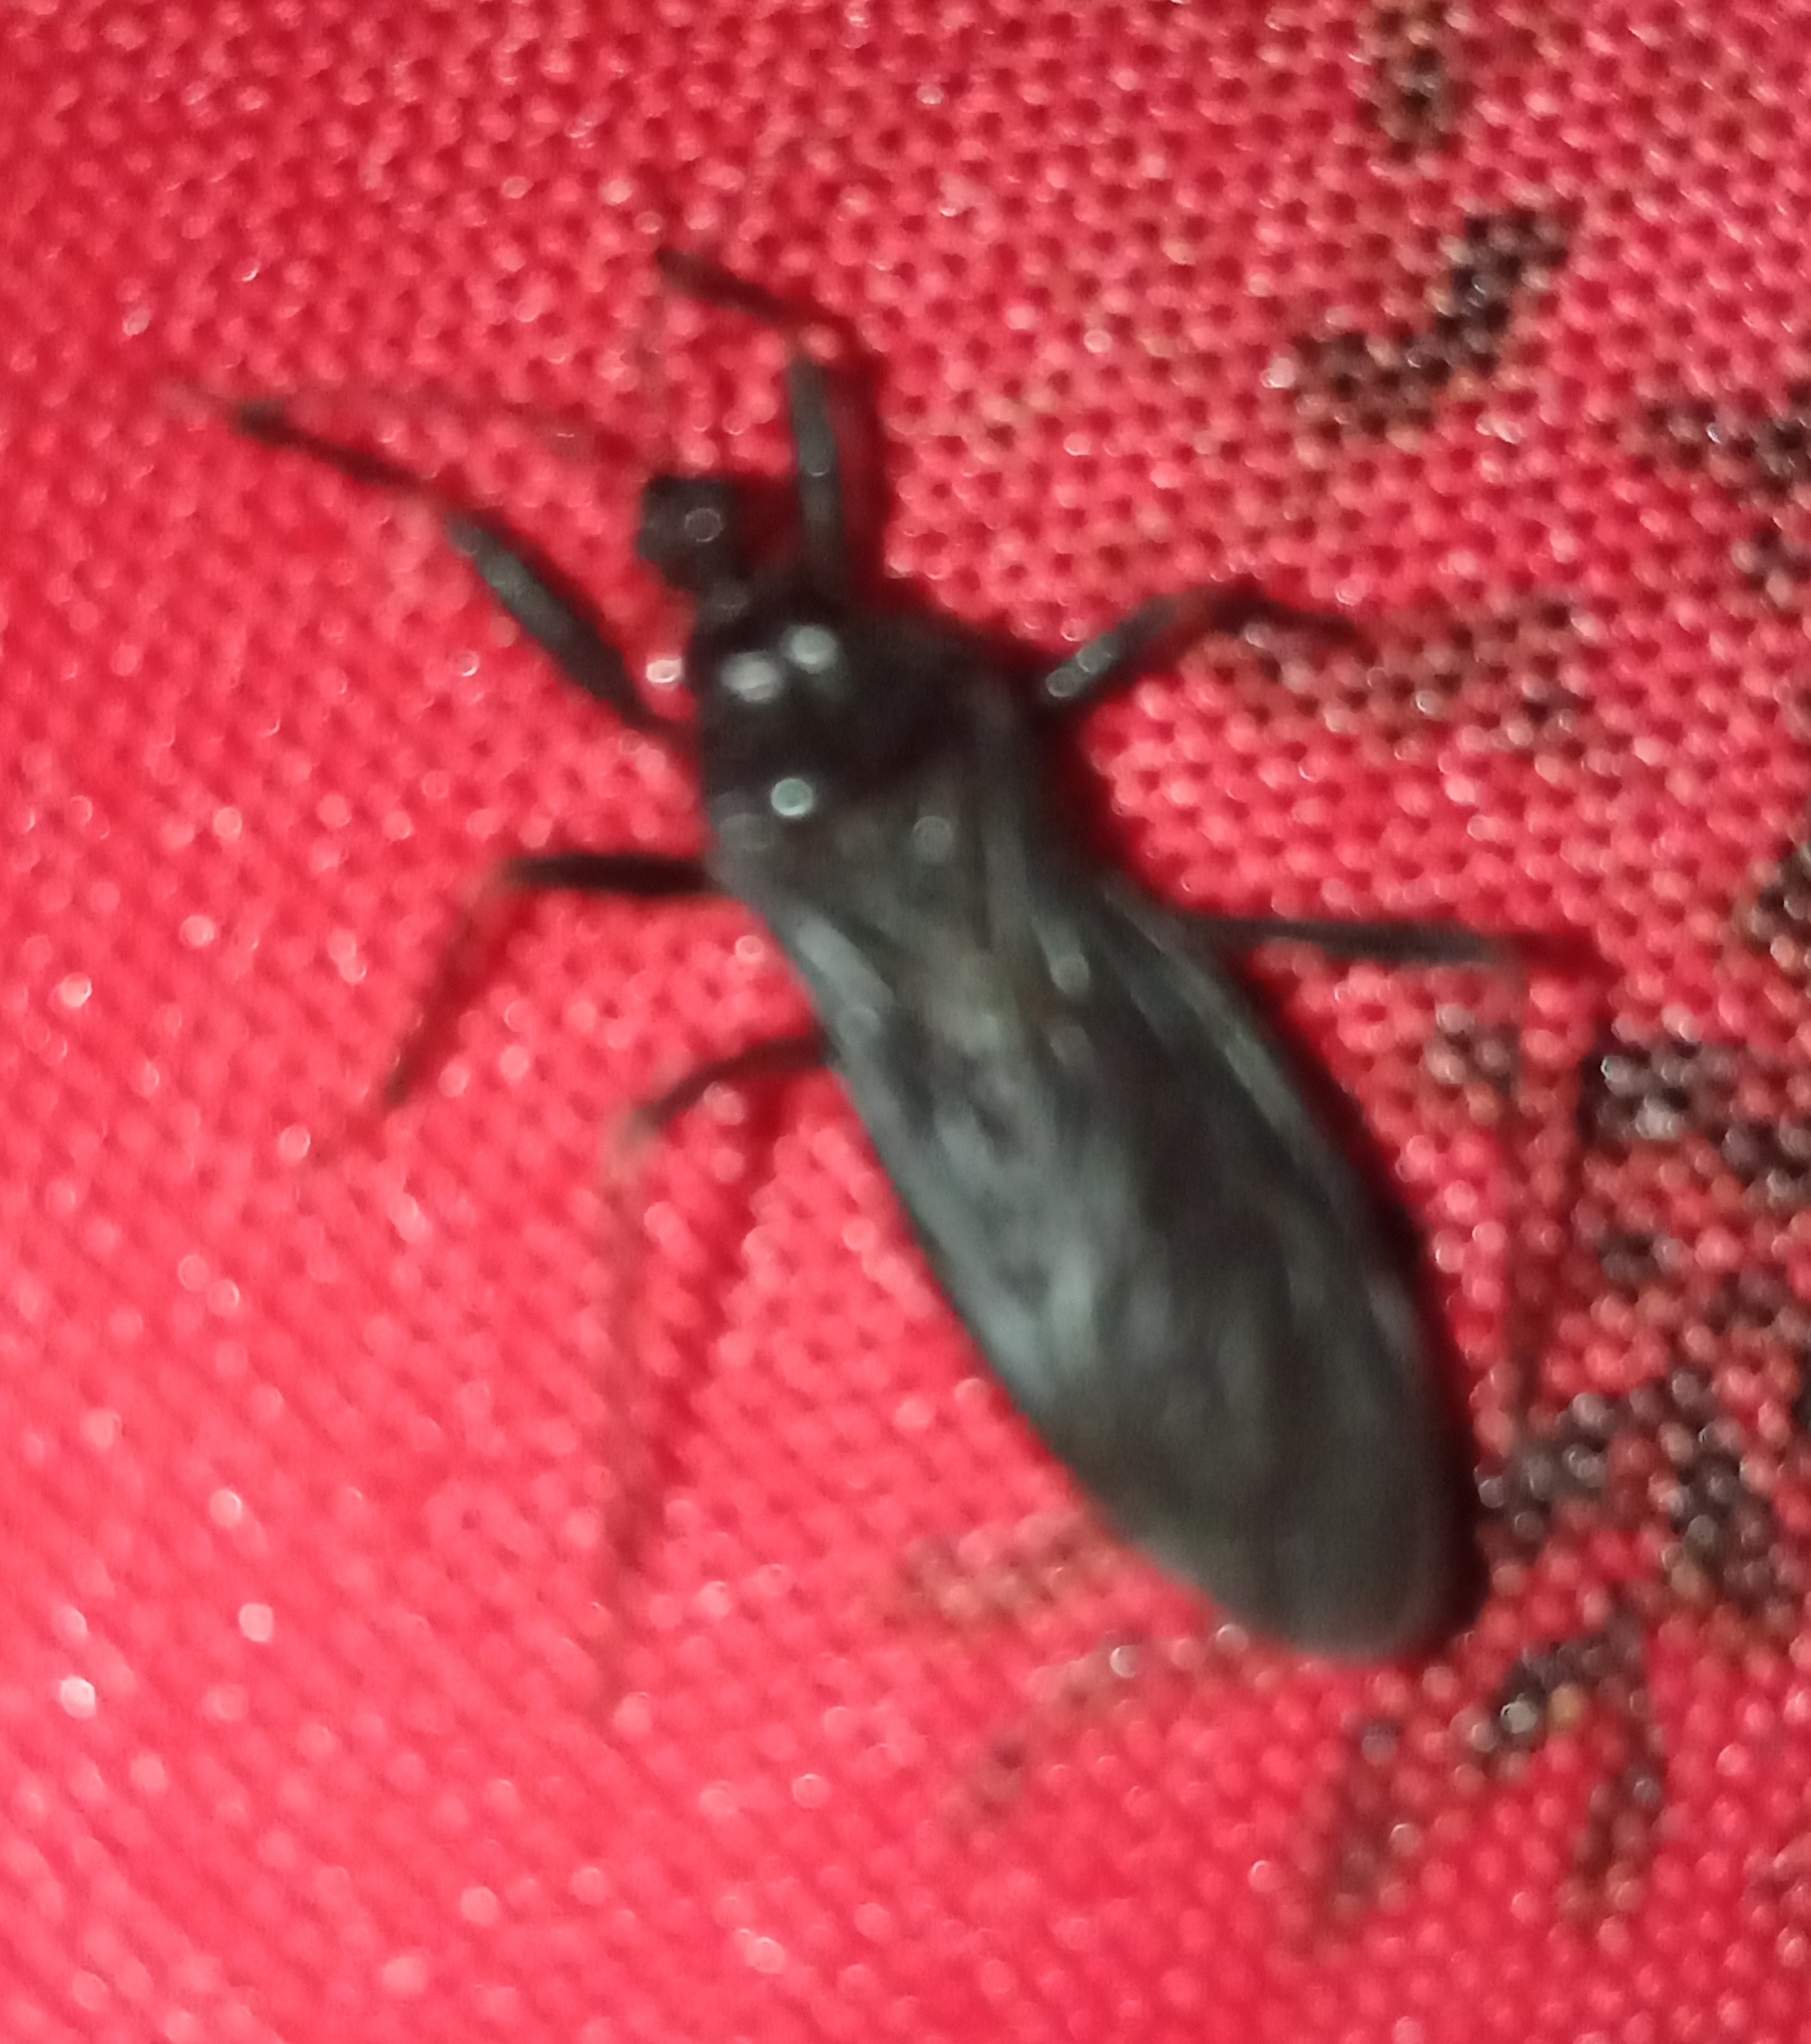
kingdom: Animalia
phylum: Arthropoda
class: Insecta
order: Hemiptera
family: Reduviidae
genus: Reduvius
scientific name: Reduvius personatus
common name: Masked hunter
